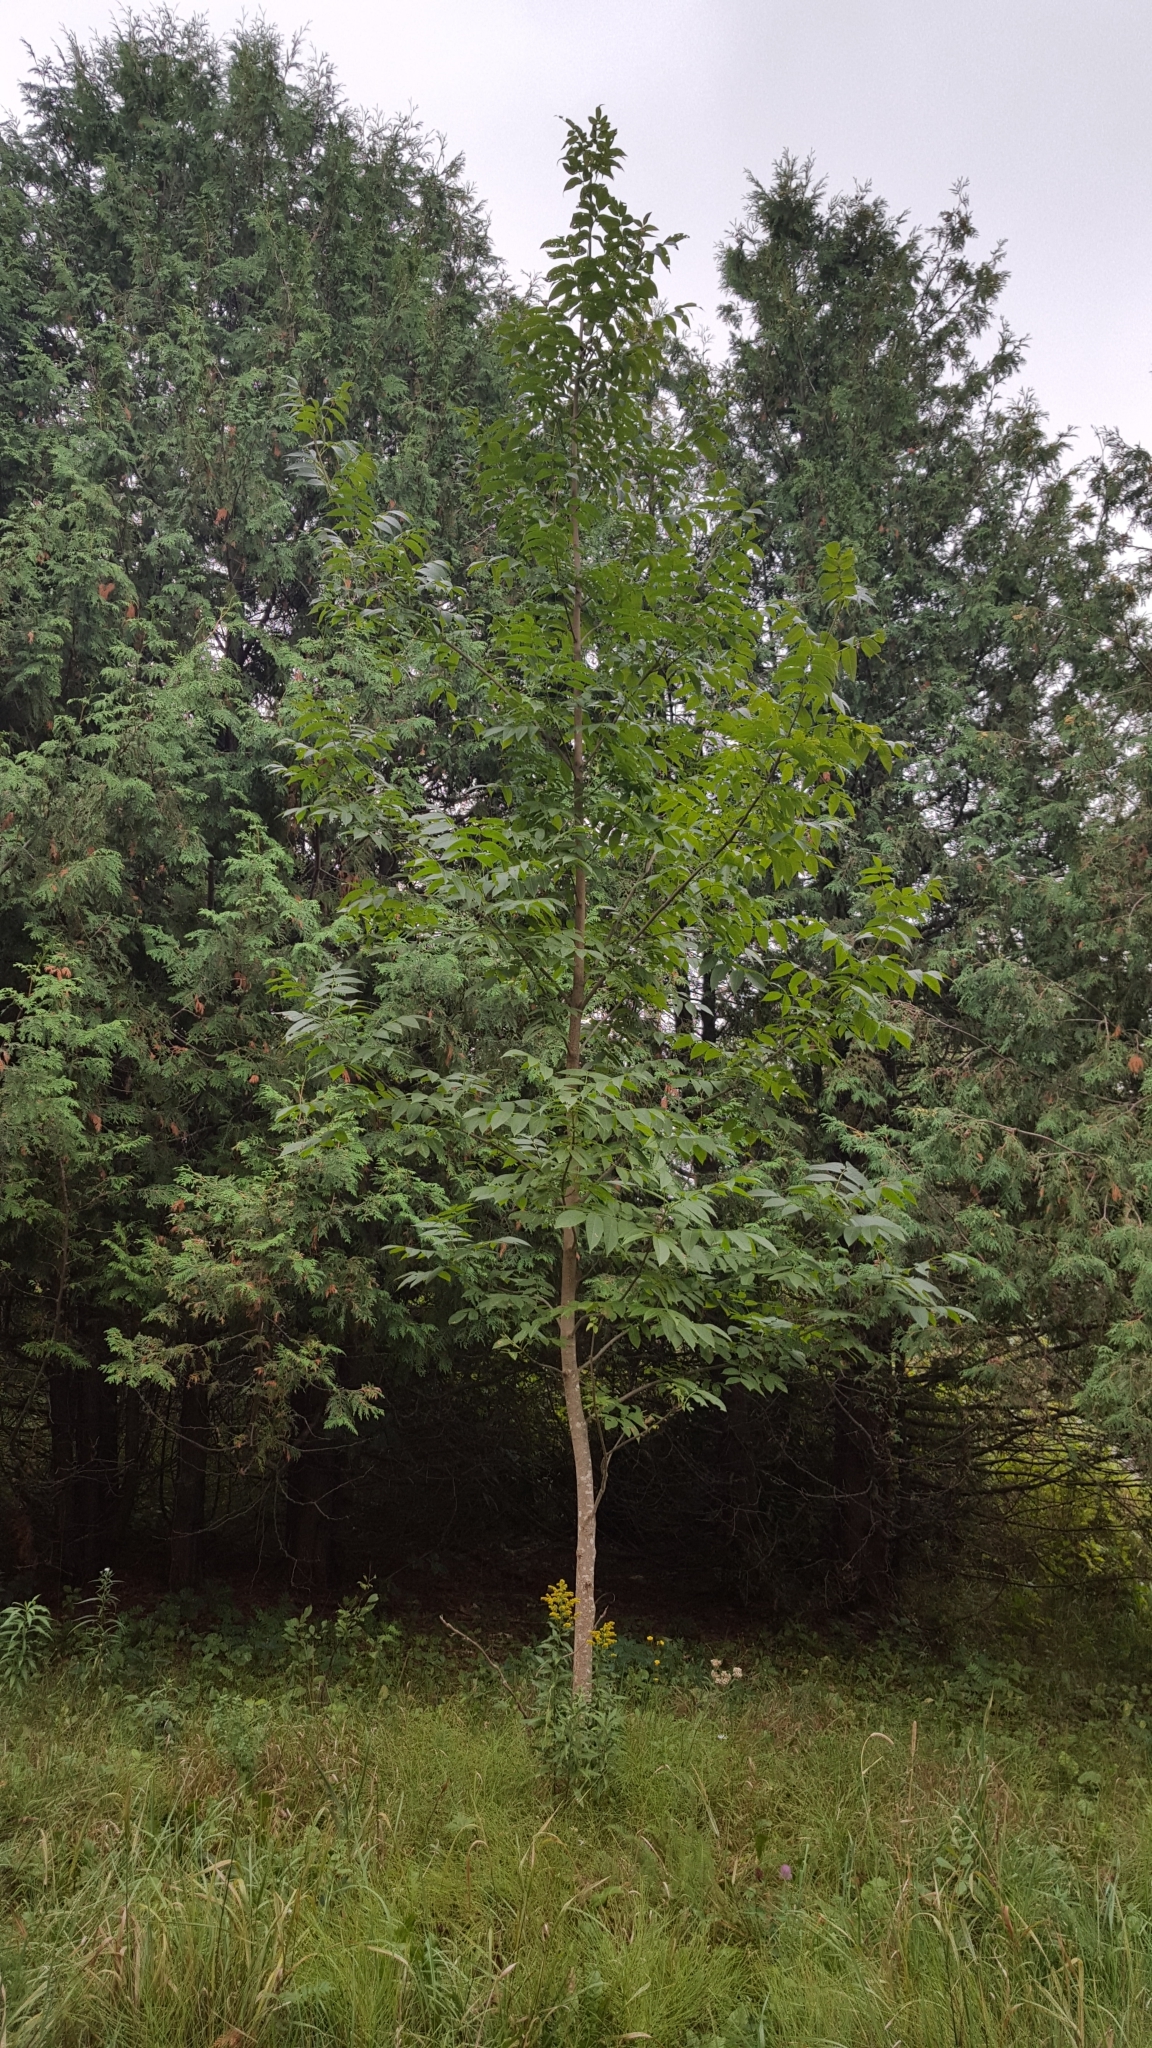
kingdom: Plantae
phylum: Tracheophyta
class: Magnoliopsida
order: Lamiales
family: Oleaceae
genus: Fraxinus
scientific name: Fraxinus nigra
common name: Black ash
